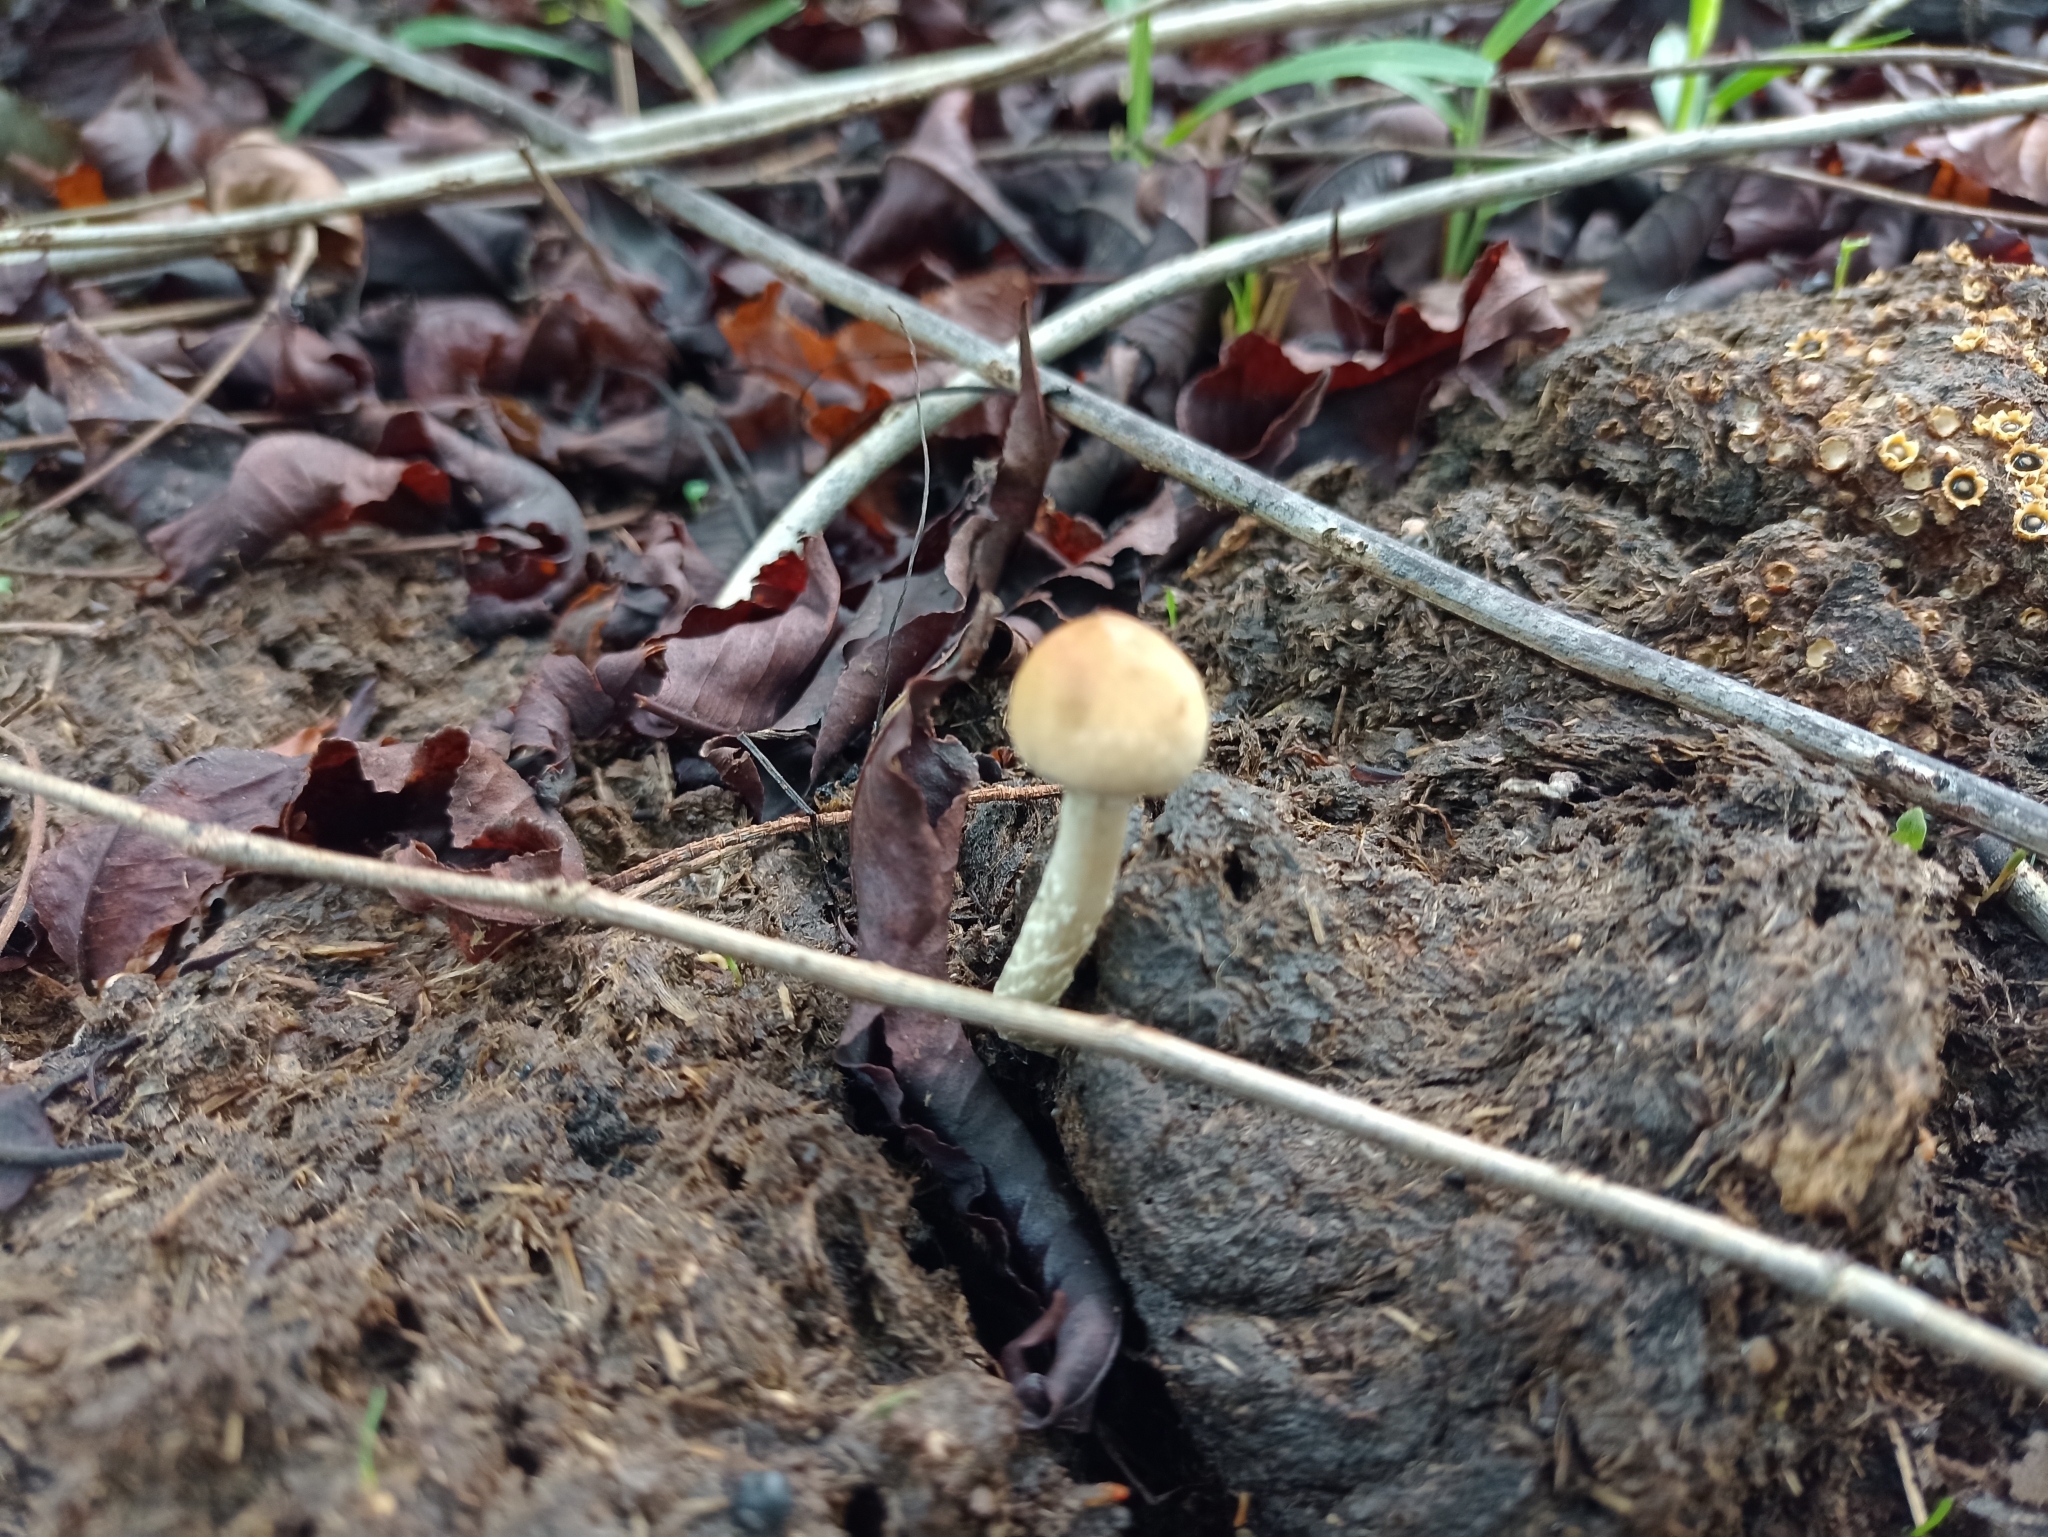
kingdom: Fungi
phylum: Basidiomycota
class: Agaricomycetes
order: Agaricales
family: Hymenogastraceae
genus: Psilocybe
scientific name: Psilocybe cubensis
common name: Golden brownie
